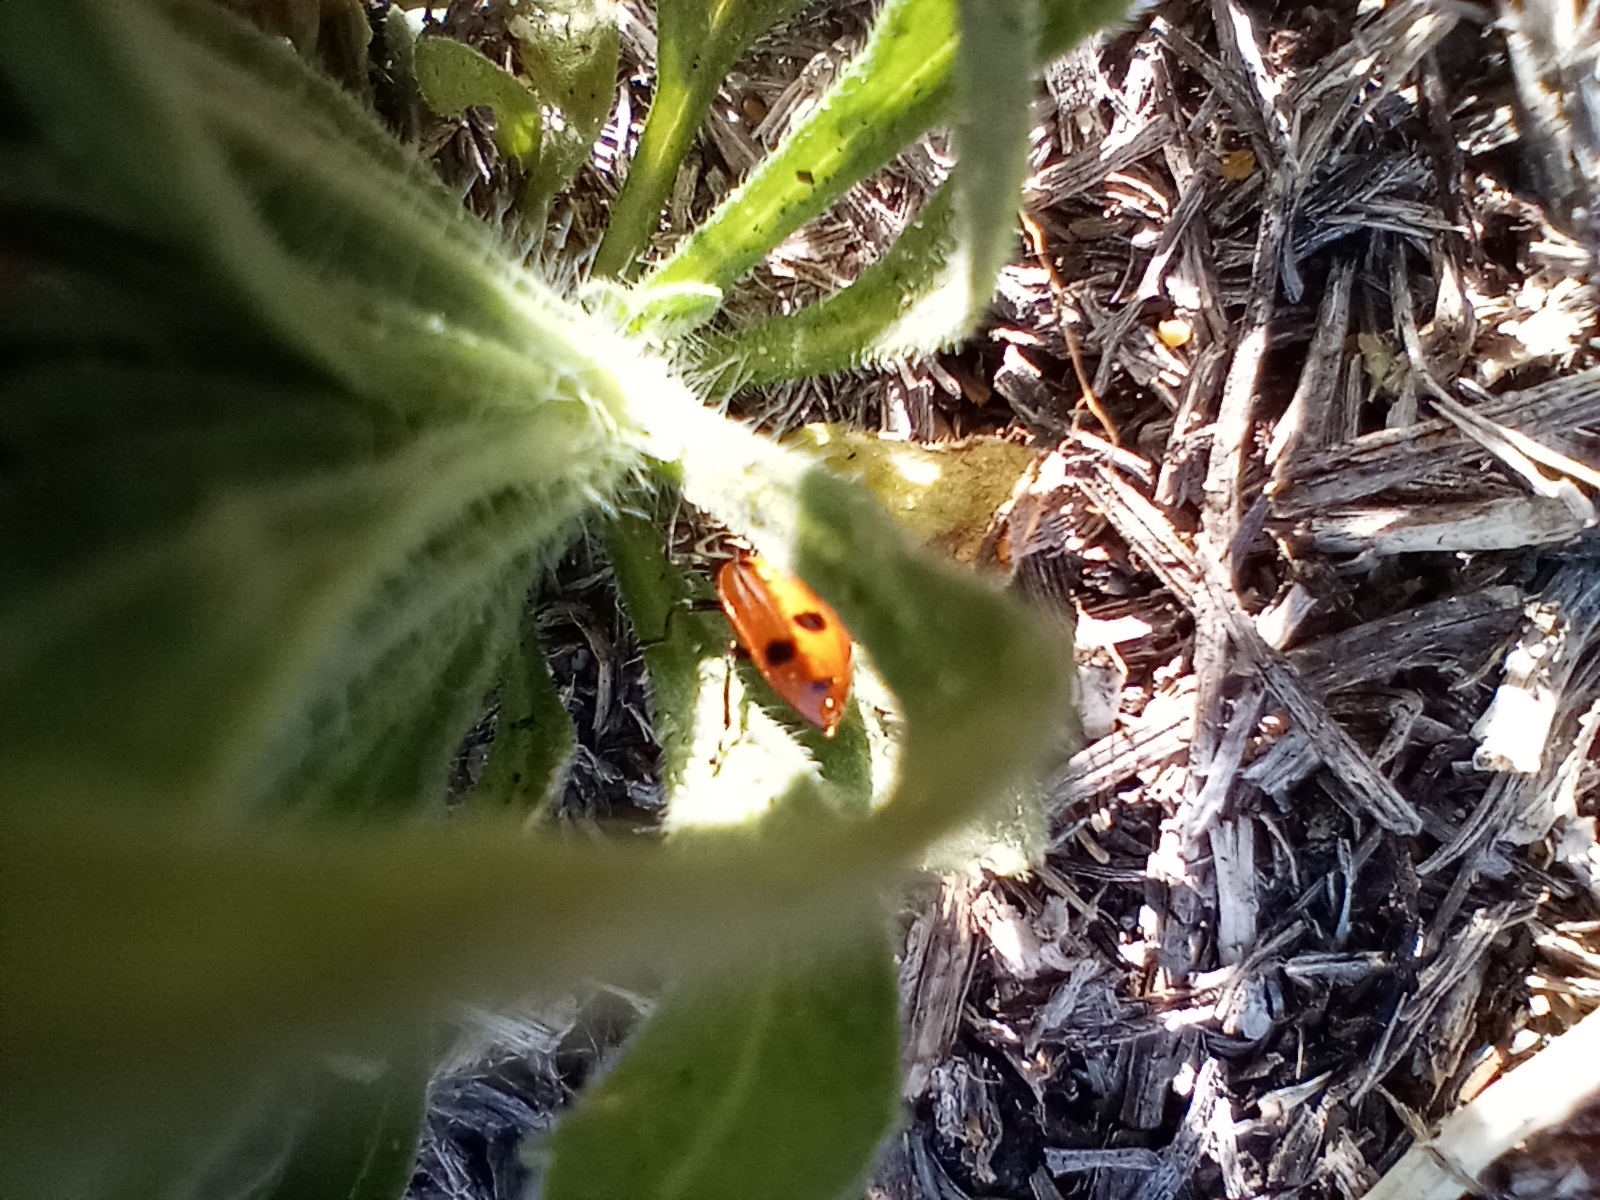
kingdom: Animalia
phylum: Arthropoda
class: Insecta
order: Coleoptera
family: Coccinellidae
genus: Hippodamia
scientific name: Hippodamia convergens
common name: Convergent lady beetle
